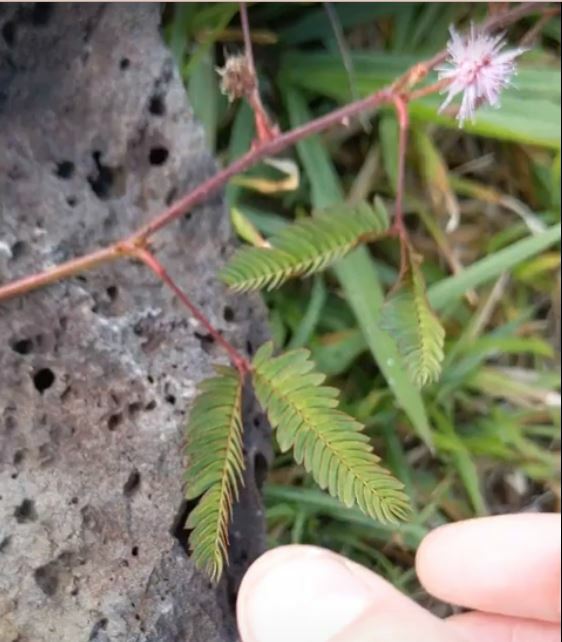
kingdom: Plantae
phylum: Tracheophyta
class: Magnoliopsida
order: Fabales
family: Fabaceae
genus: Mimosa
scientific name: Mimosa pudica
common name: Sensitive plant
